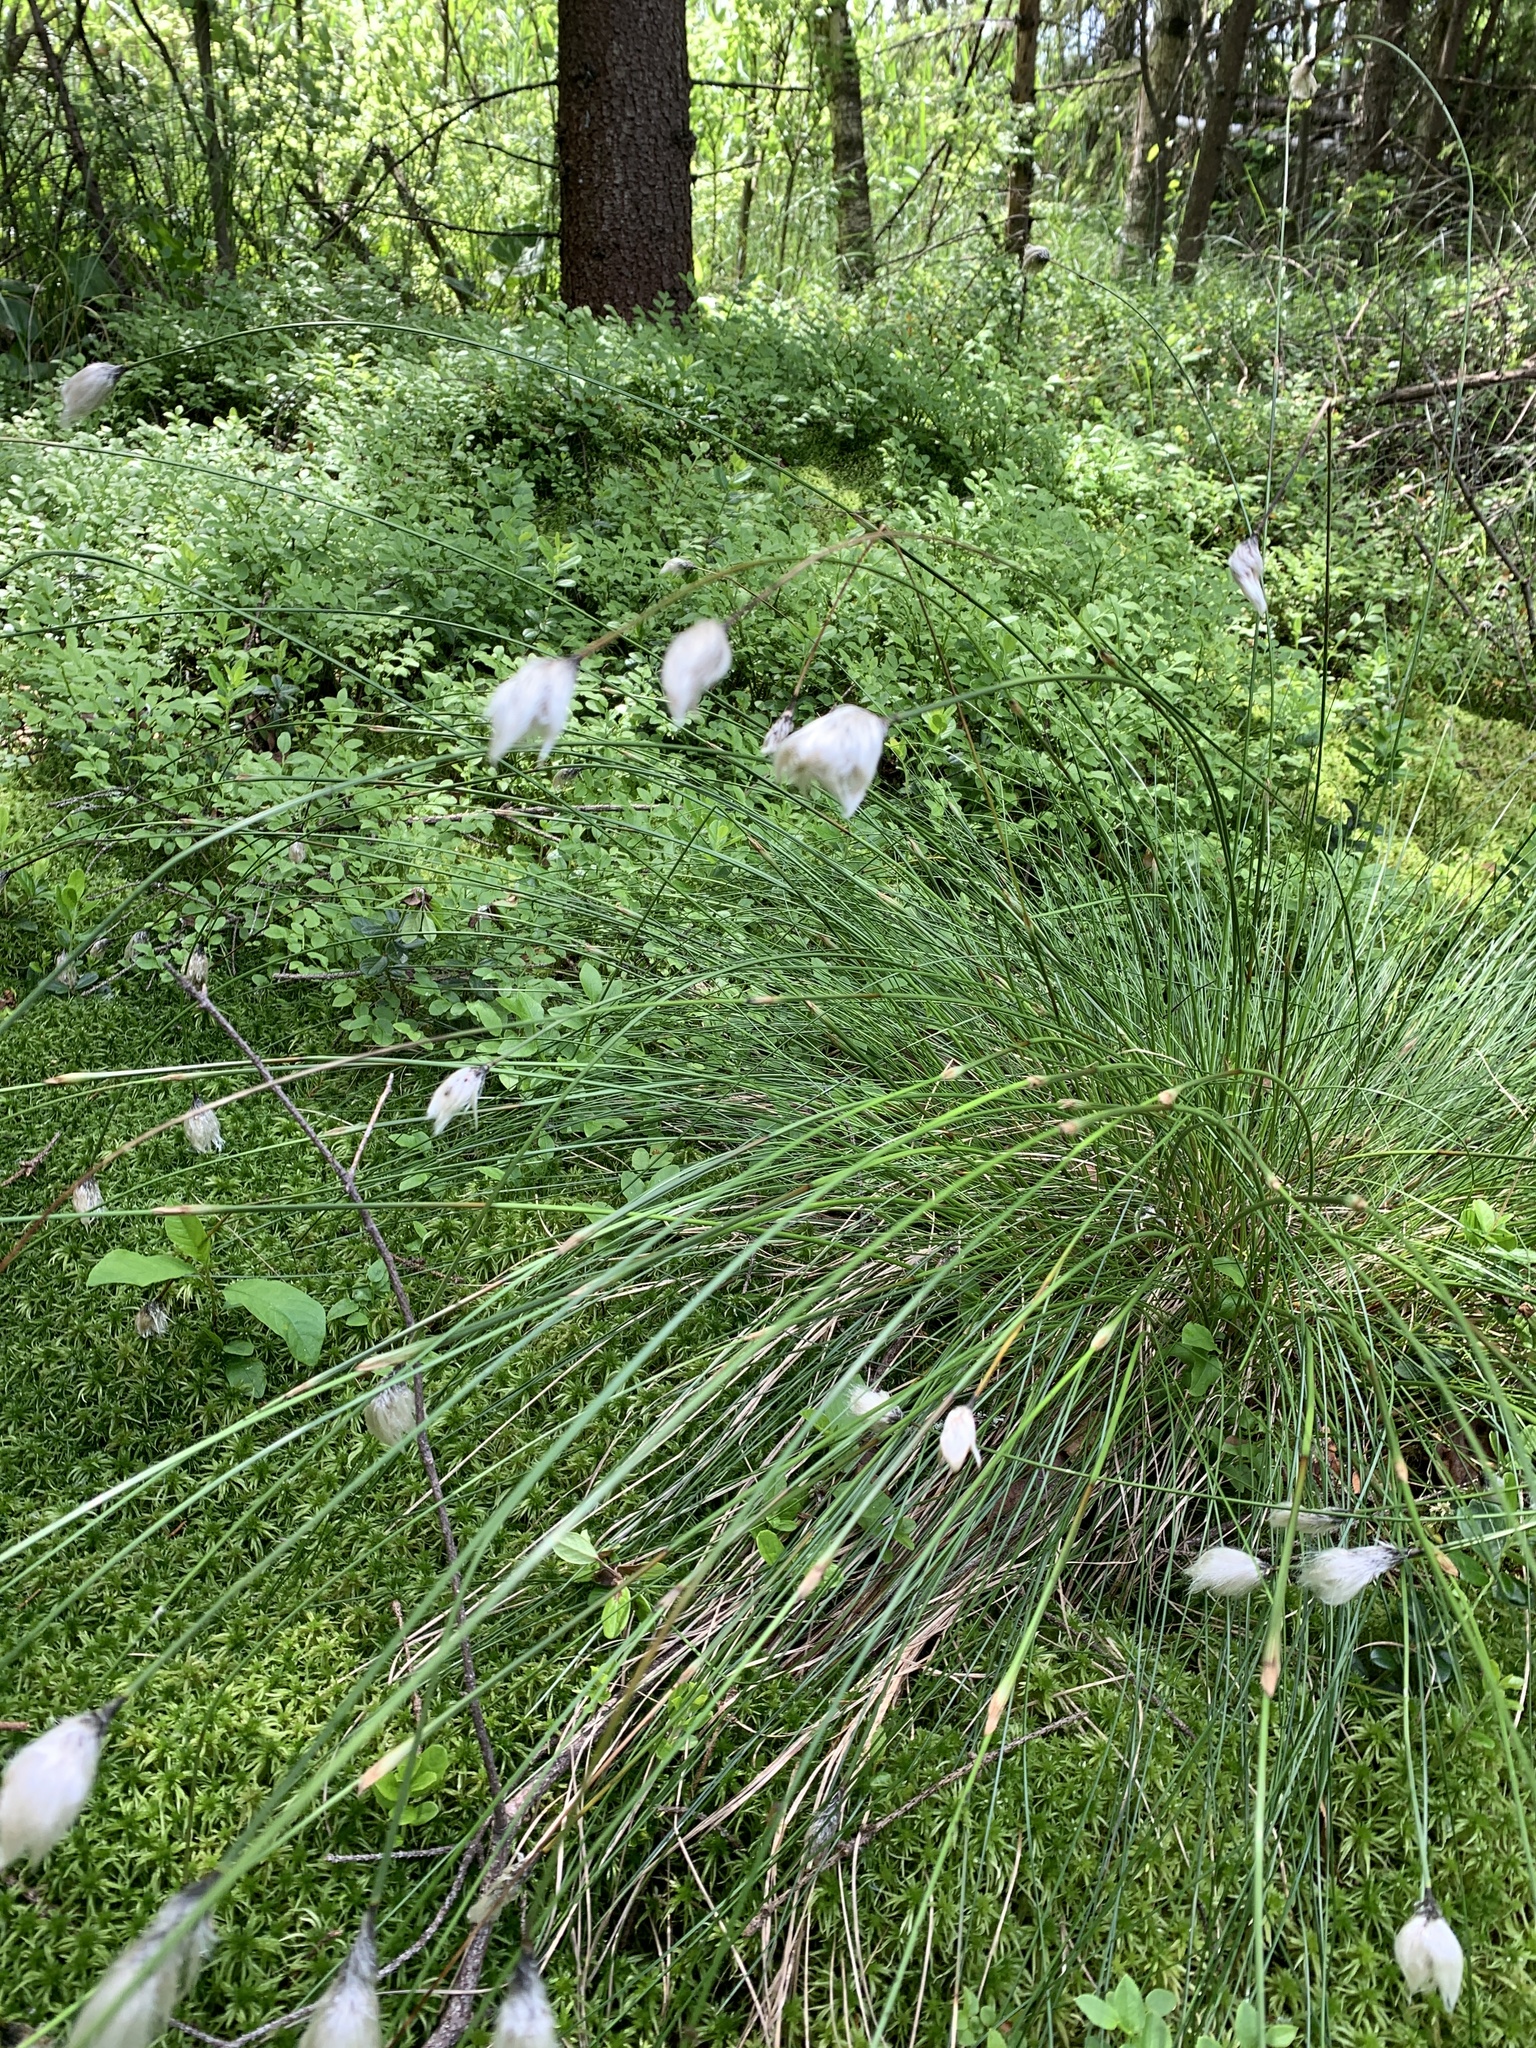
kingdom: Plantae
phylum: Tracheophyta
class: Liliopsida
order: Poales
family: Cyperaceae
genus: Eriophorum
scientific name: Eriophorum vaginatum
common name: Hare's-tail cottongrass
